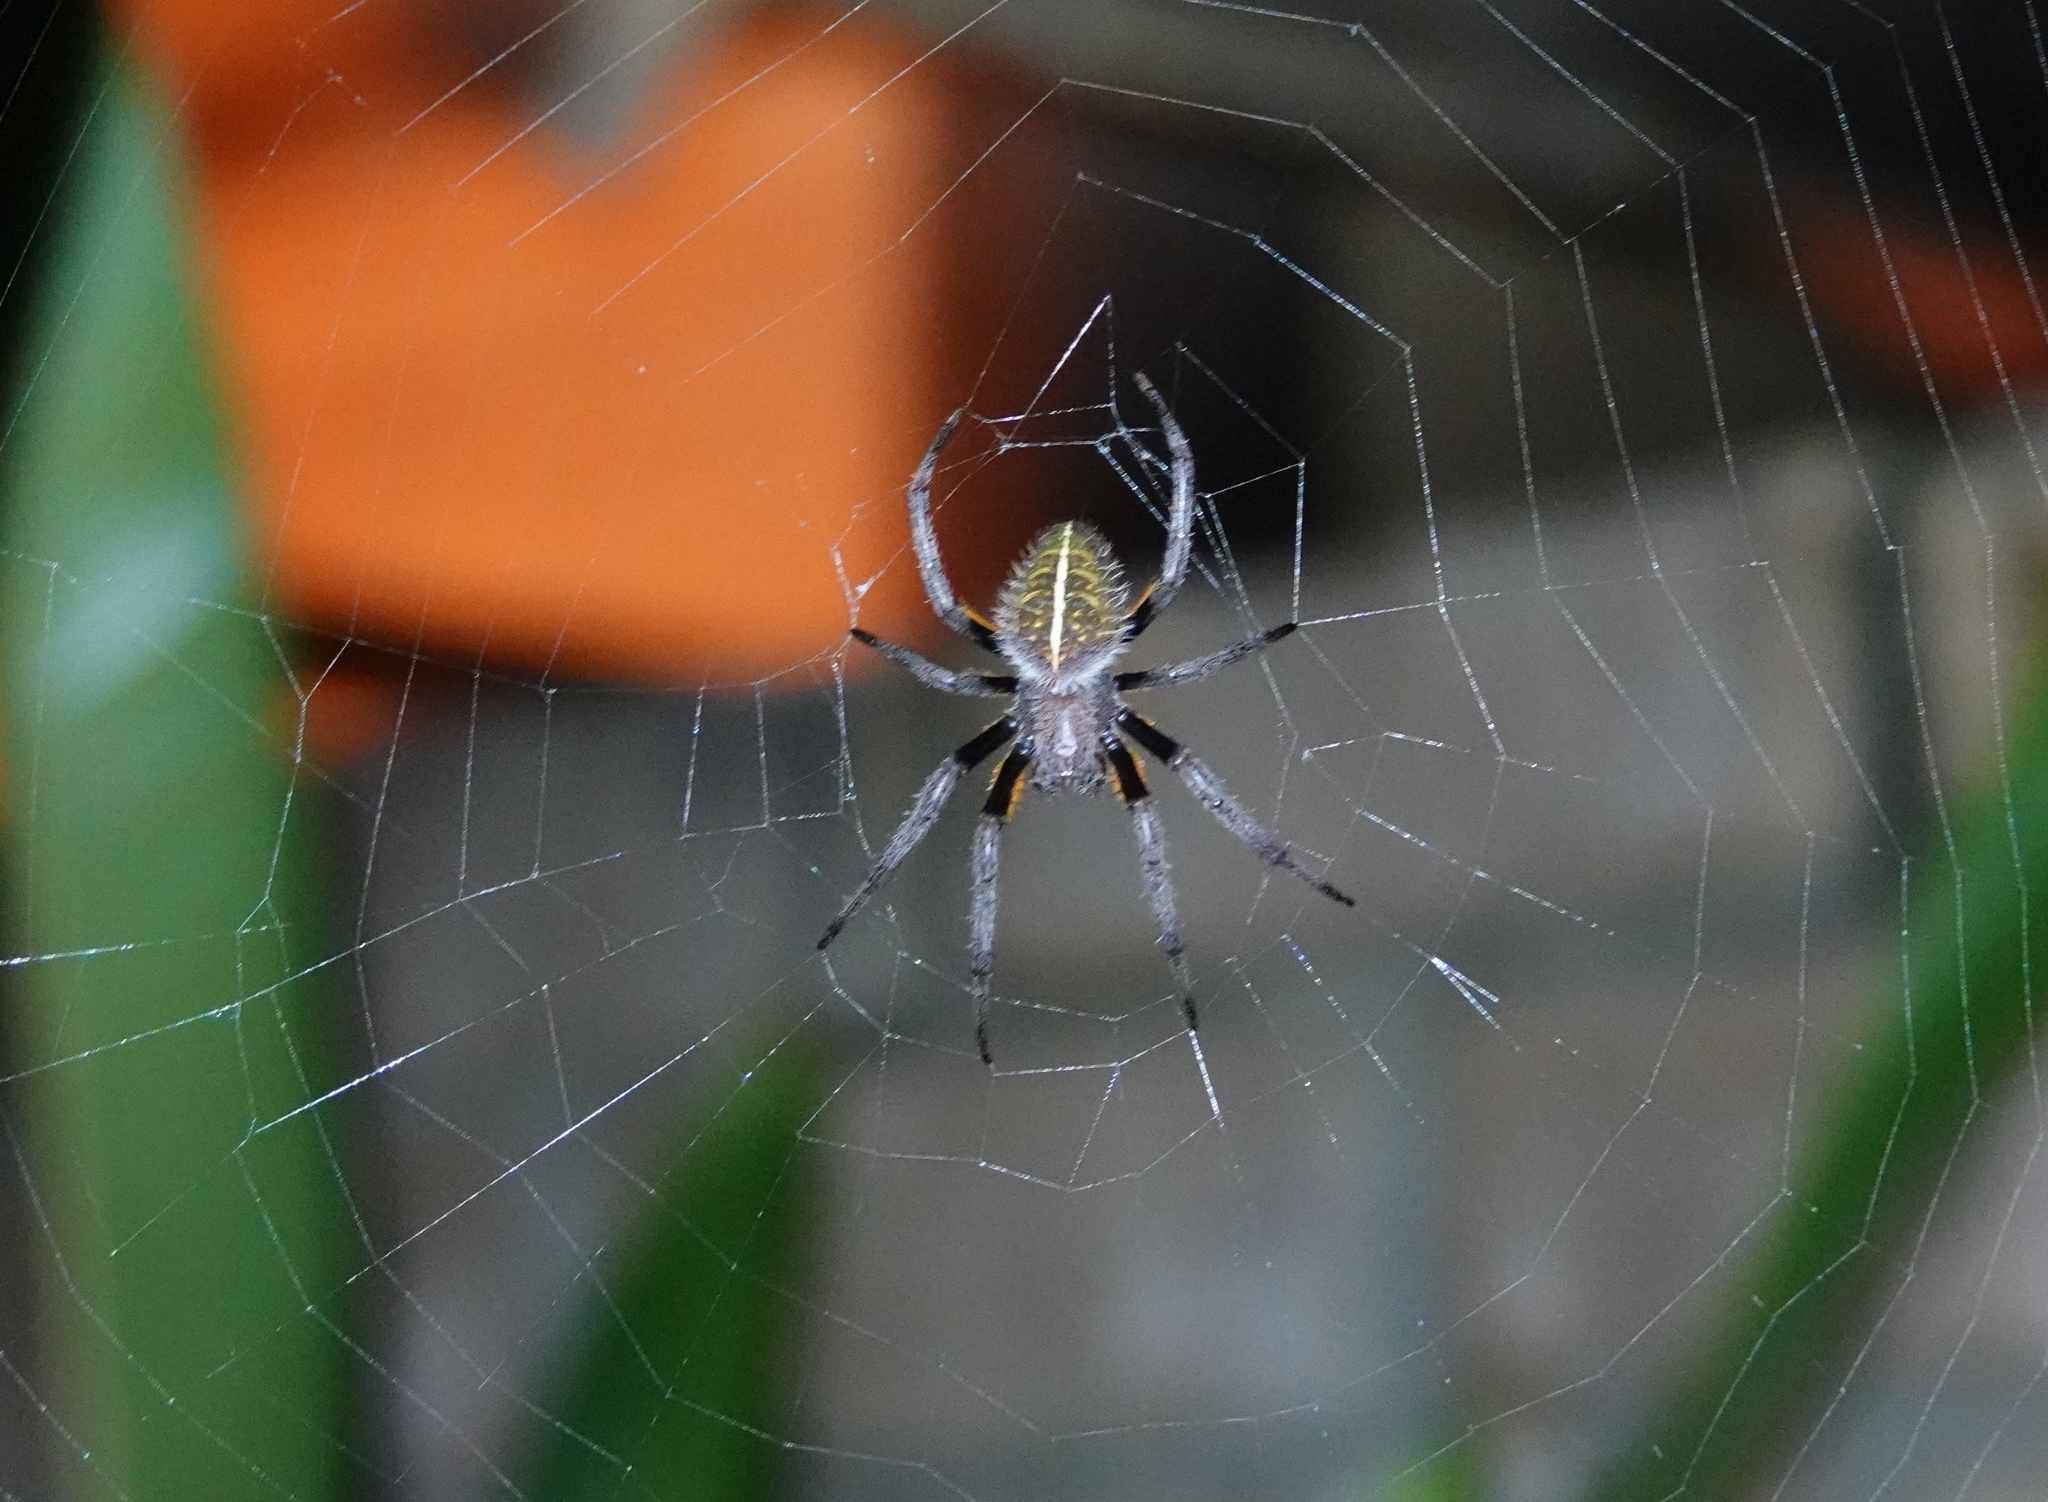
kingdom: Animalia
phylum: Arthropoda
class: Arachnida
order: Araneae
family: Araneidae
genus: Eriophora
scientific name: Eriophora
